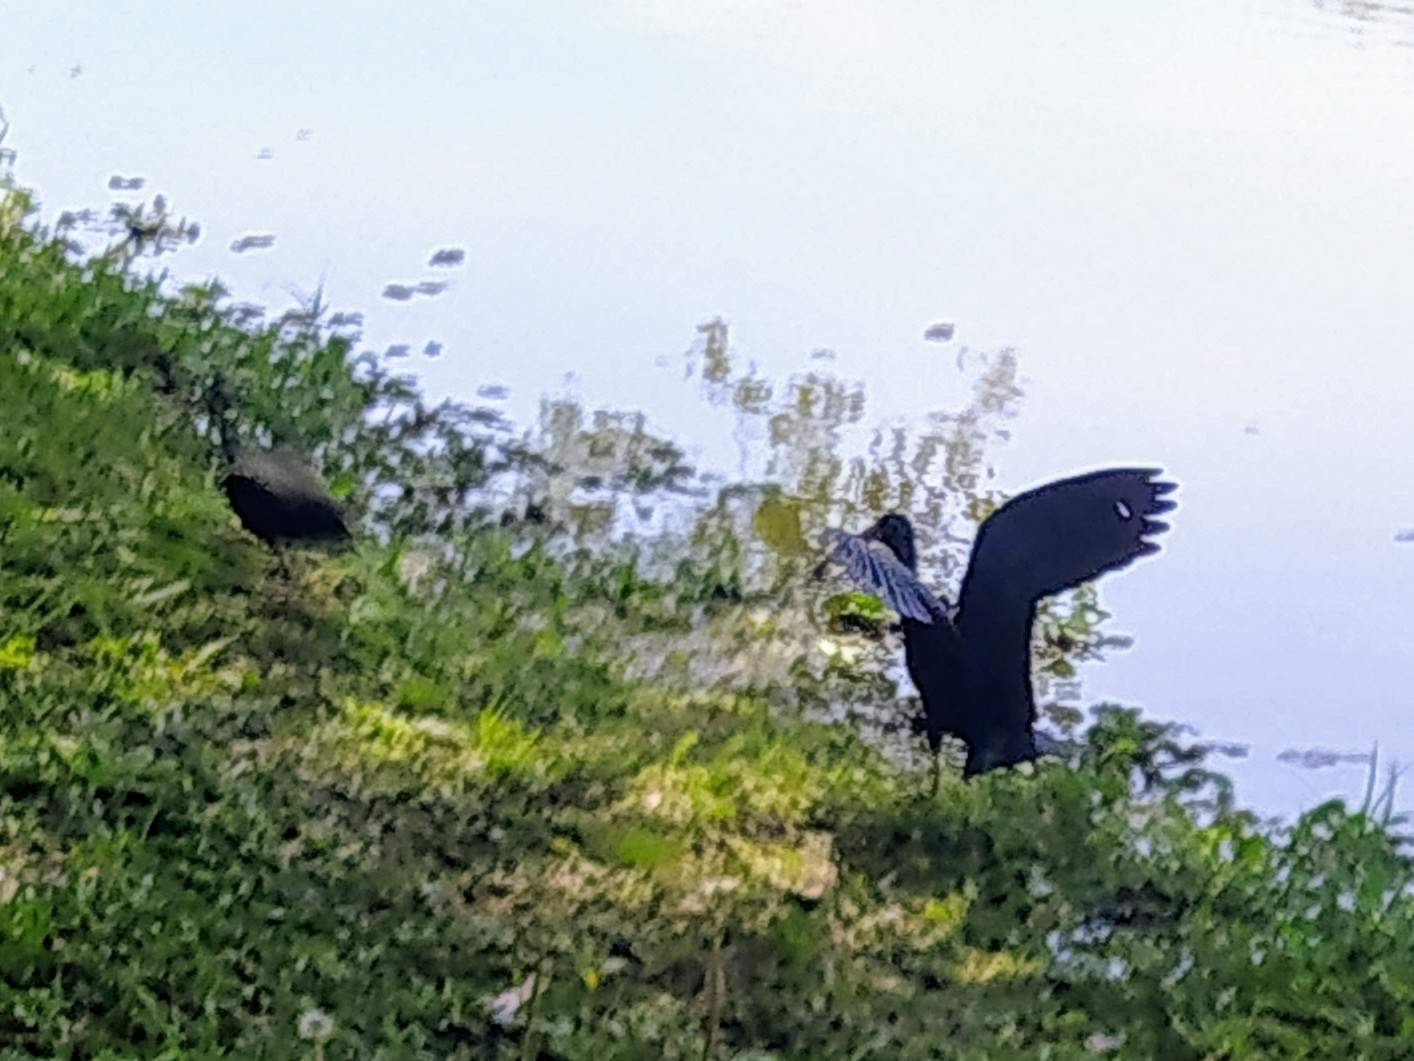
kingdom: Animalia
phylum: Chordata
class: Aves
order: Pelecaniformes
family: Threskiornithidae
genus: Phimosus
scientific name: Phimosus infuscatus
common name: Bare-faced ibis
